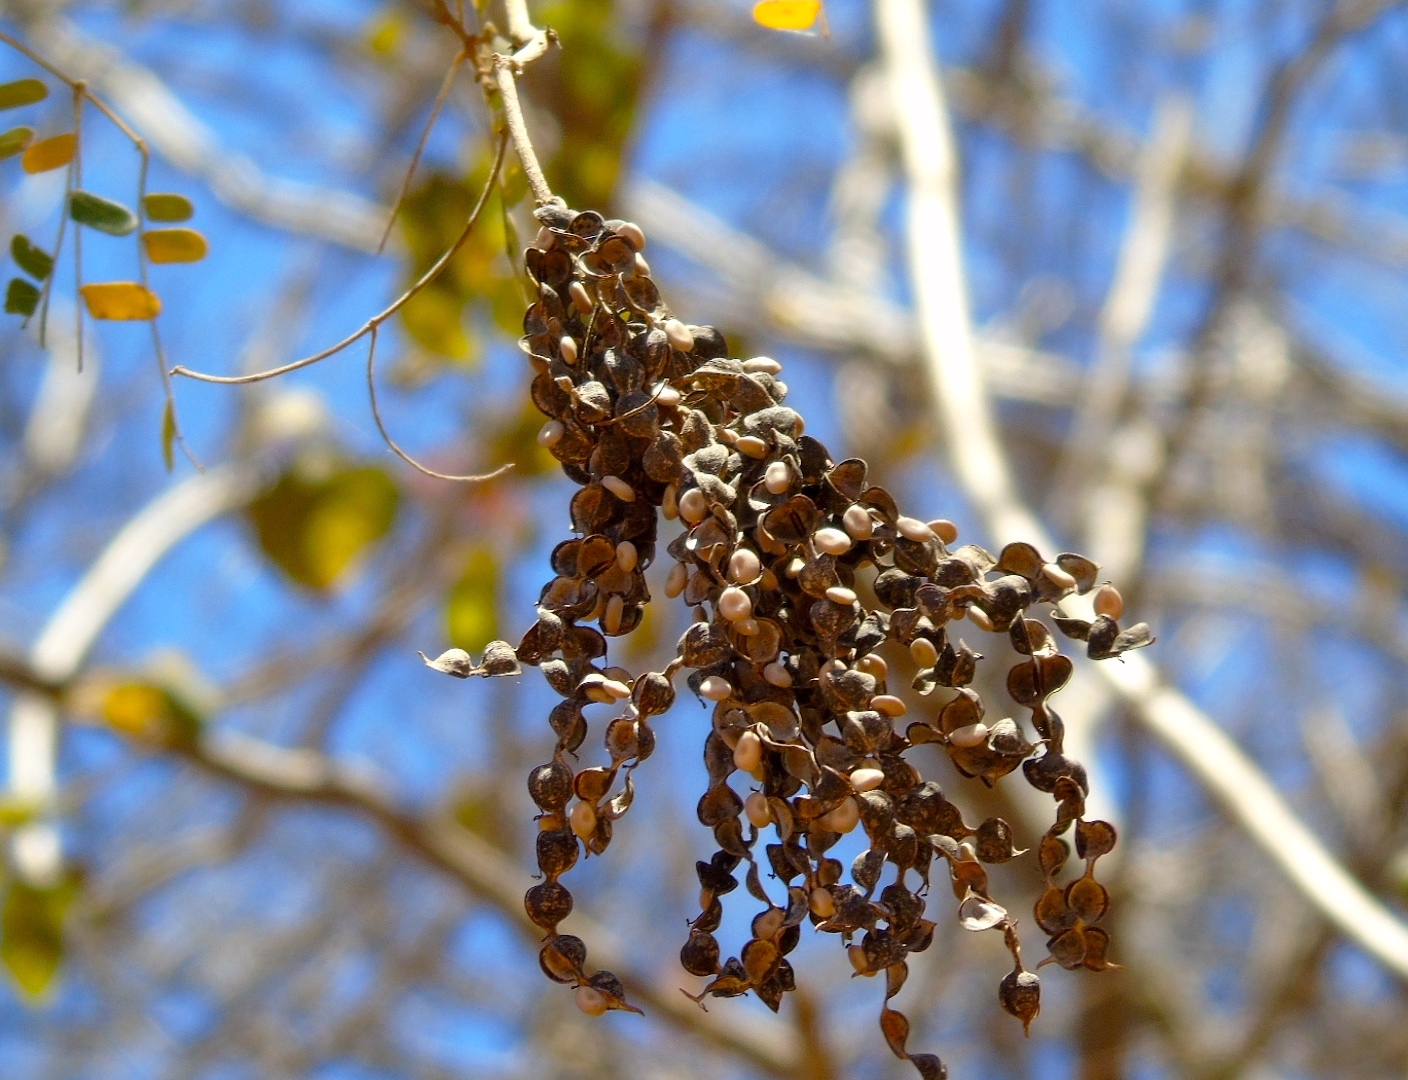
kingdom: Plantae
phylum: Tracheophyta
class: Magnoliopsida
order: Fabales
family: Fabaceae
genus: Pityrocarpa
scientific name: Pityrocarpa obliqua
